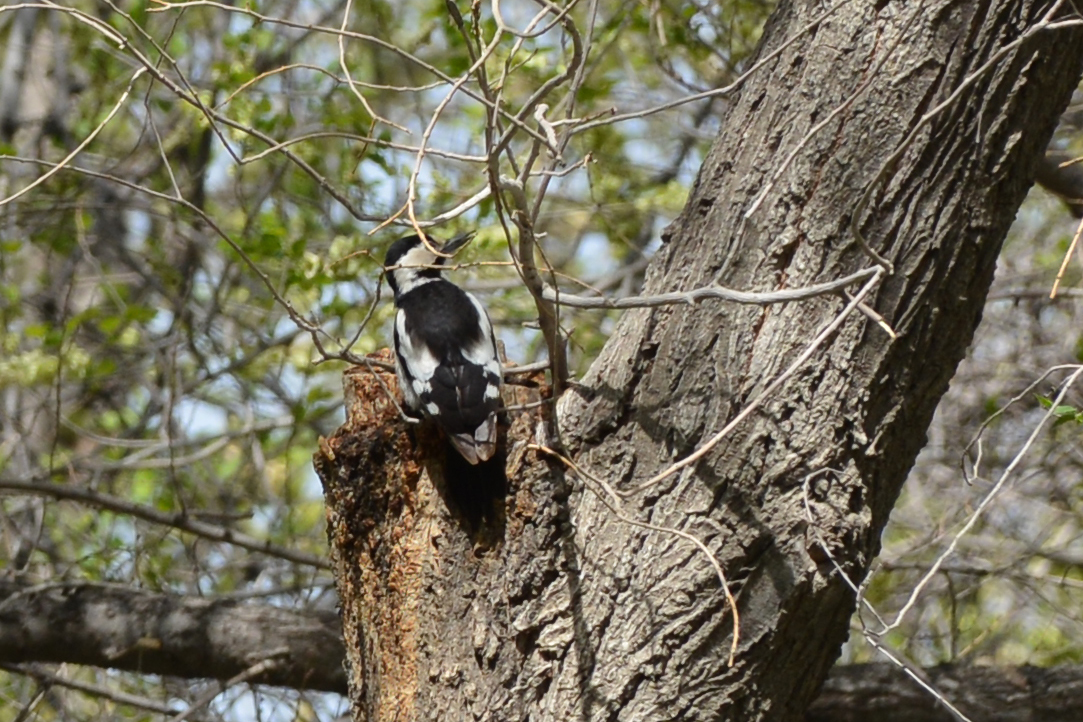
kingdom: Animalia
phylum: Chordata
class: Aves
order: Piciformes
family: Picidae
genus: Dendrocopos
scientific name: Dendrocopos syriacus
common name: Syrian woodpecker
